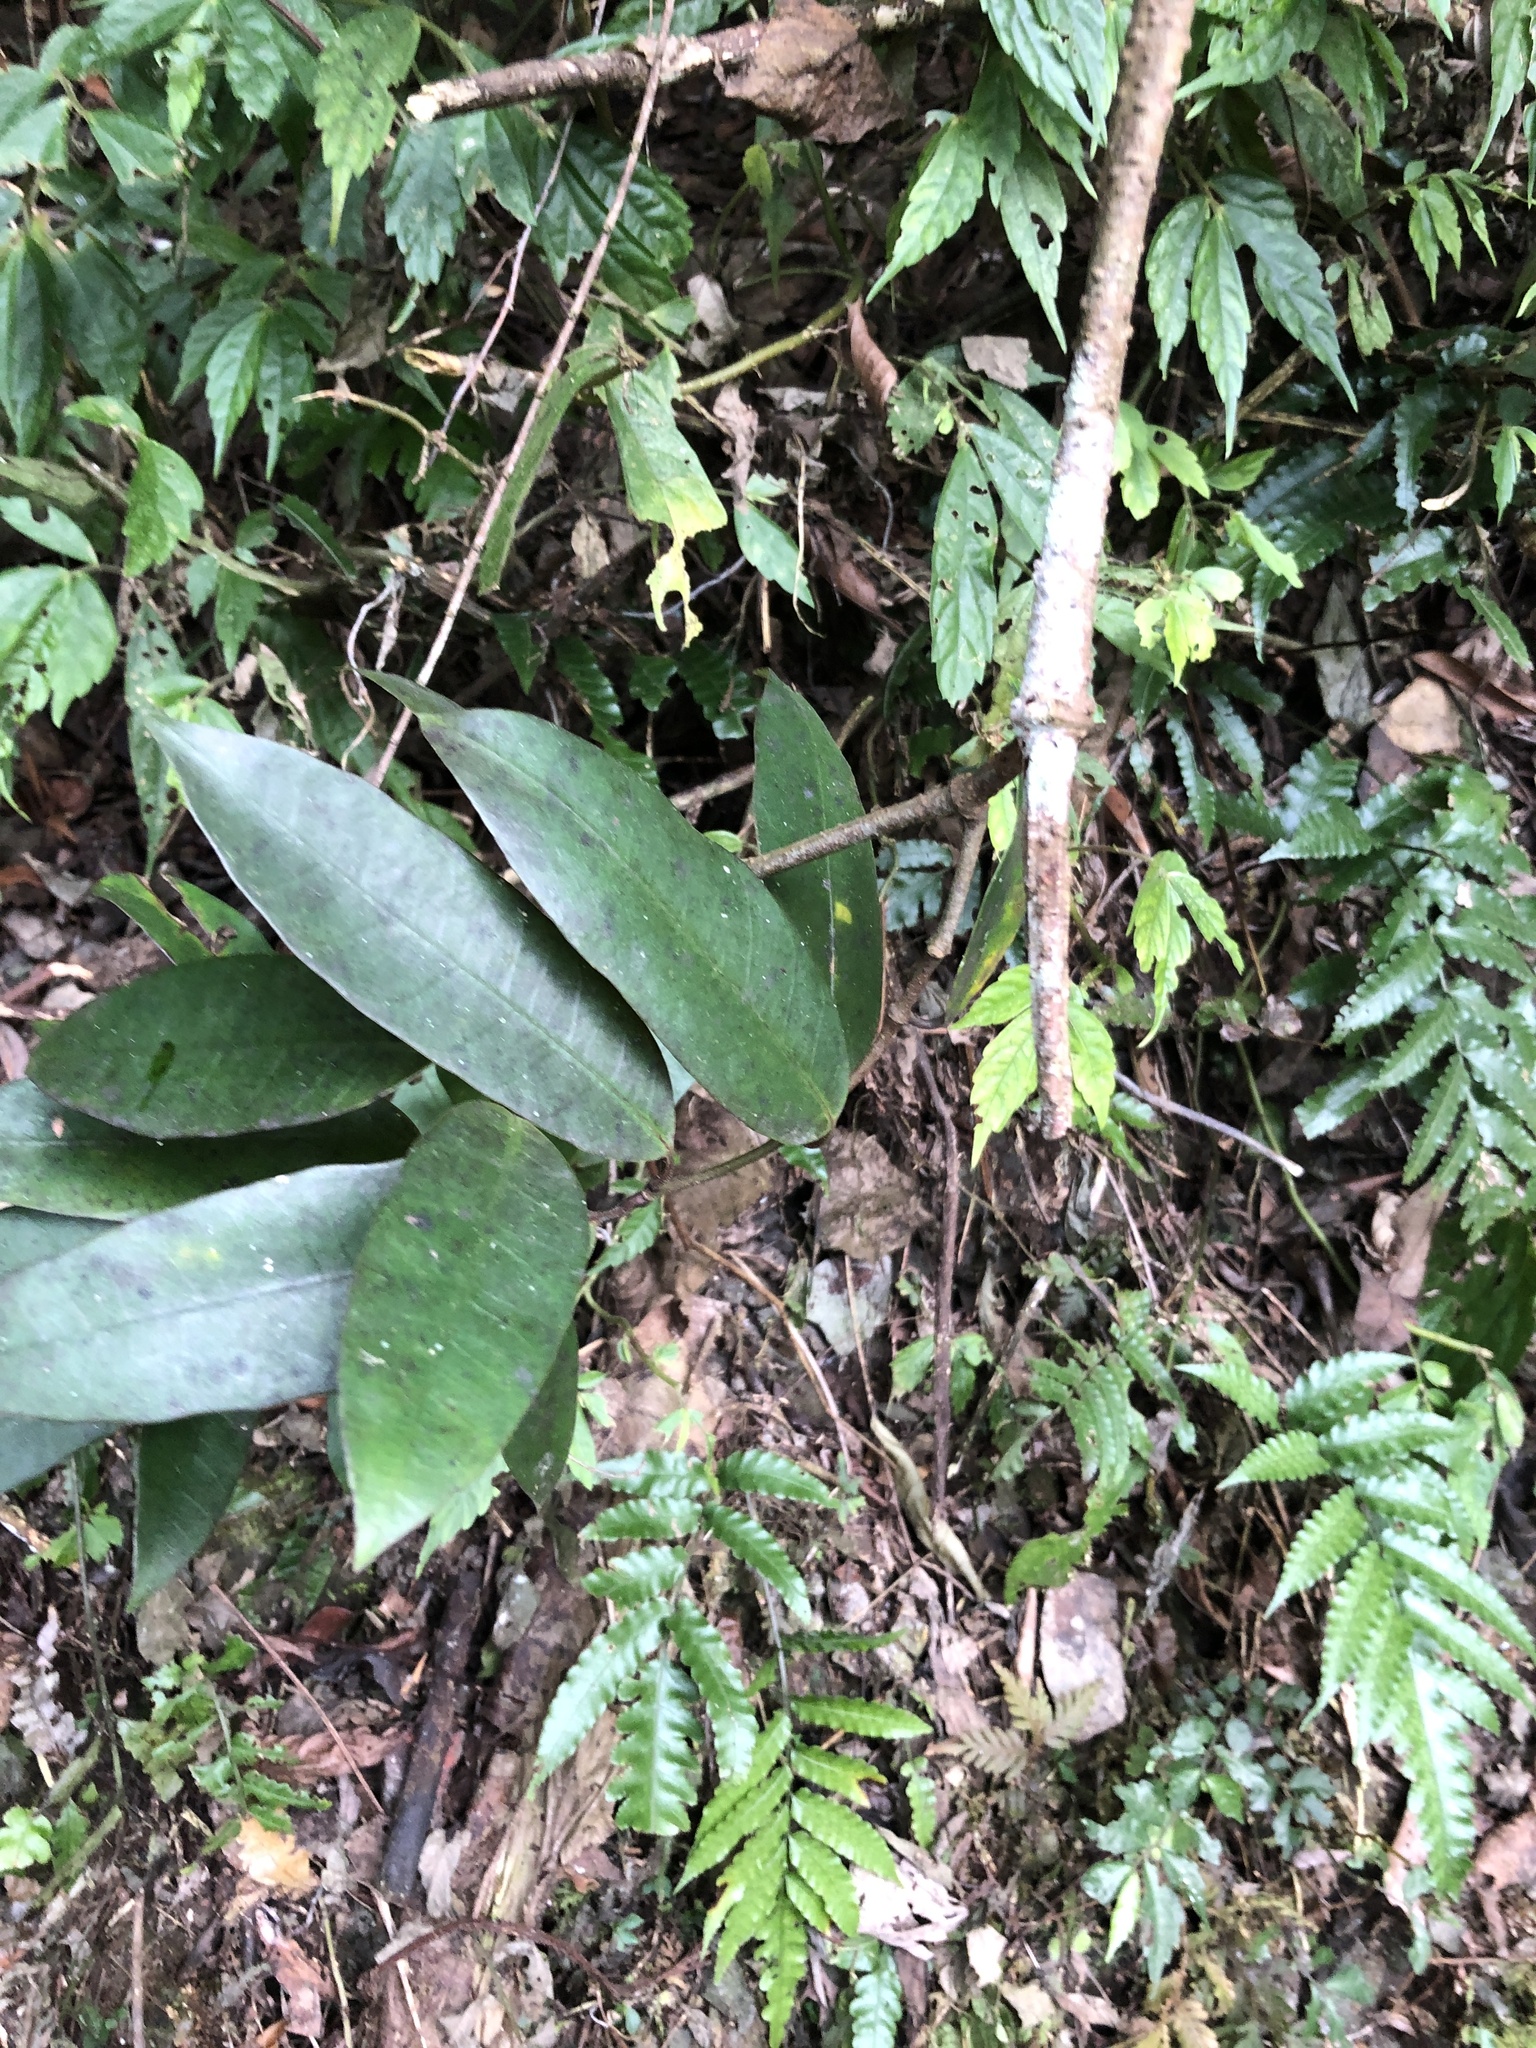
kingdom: Plantae
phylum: Tracheophyta
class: Magnoliopsida
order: Gentianales
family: Apocynaceae
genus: Anodendron
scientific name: Anodendron benthamianum
